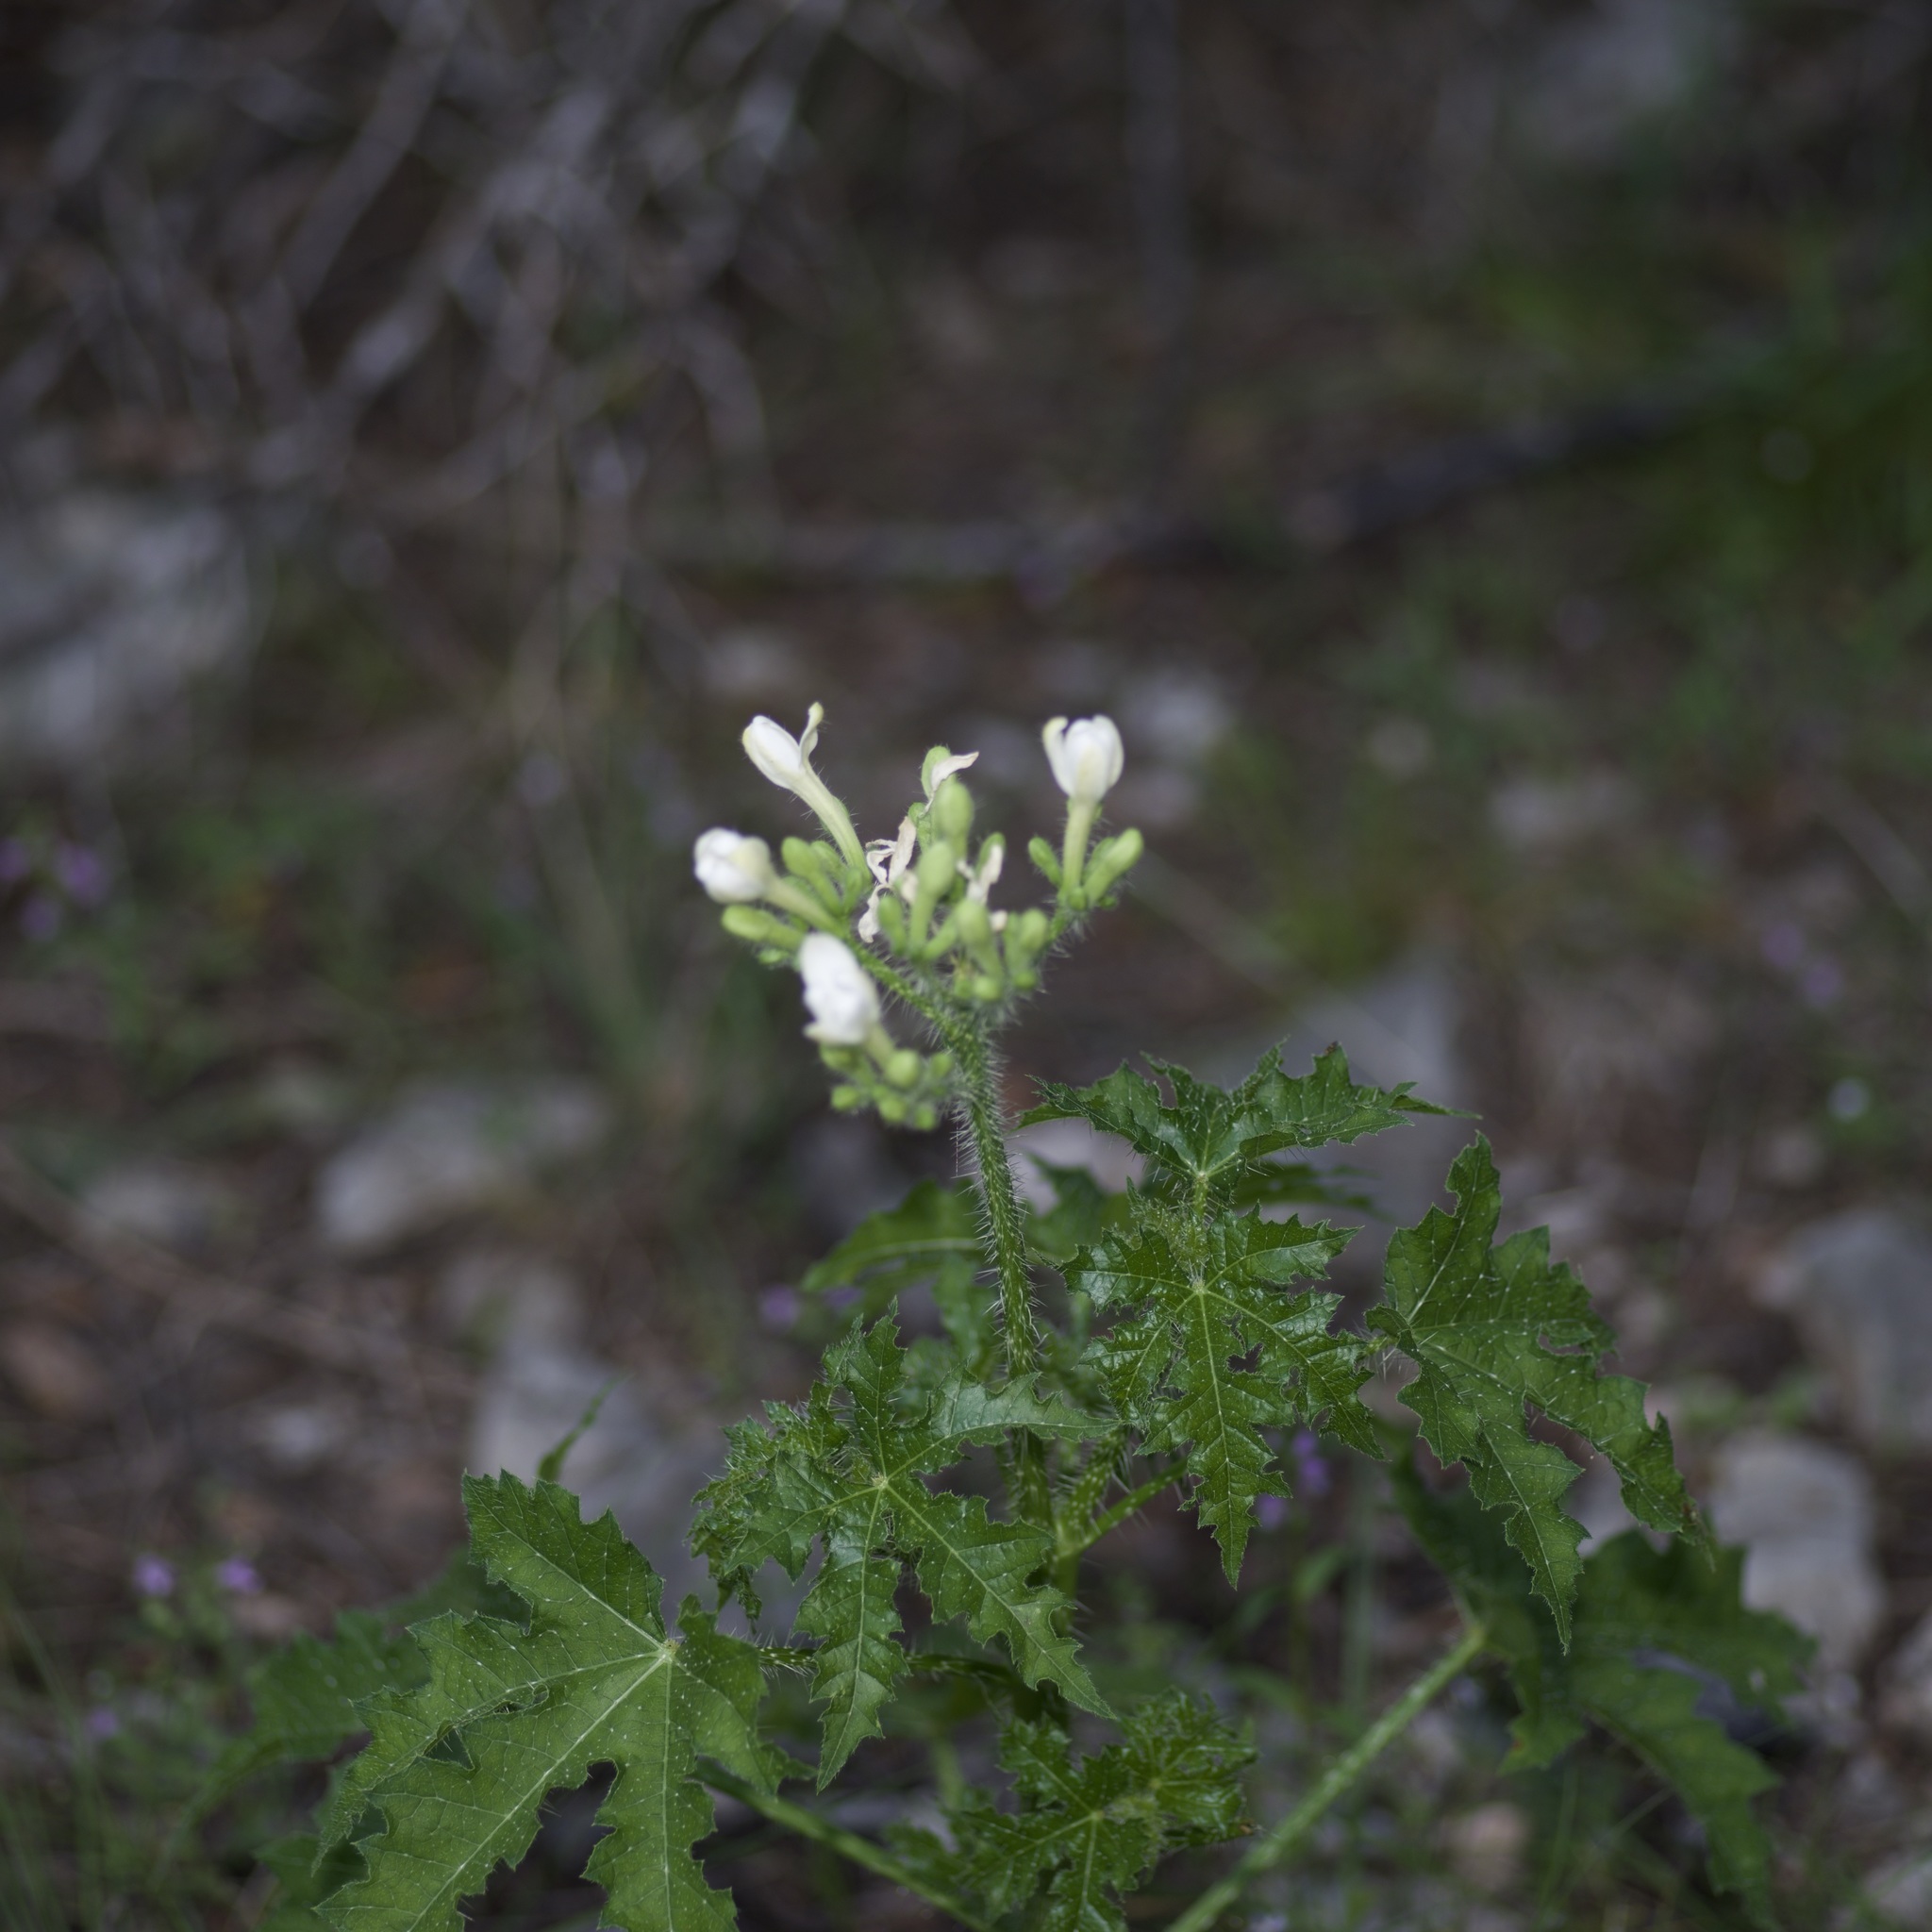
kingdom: Plantae
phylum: Tracheophyta
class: Magnoliopsida
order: Malpighiales
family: Euphorbiaceae
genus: Cnidoscolus
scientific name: Cnidoscolus texanus
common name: Texas bull-nettle
